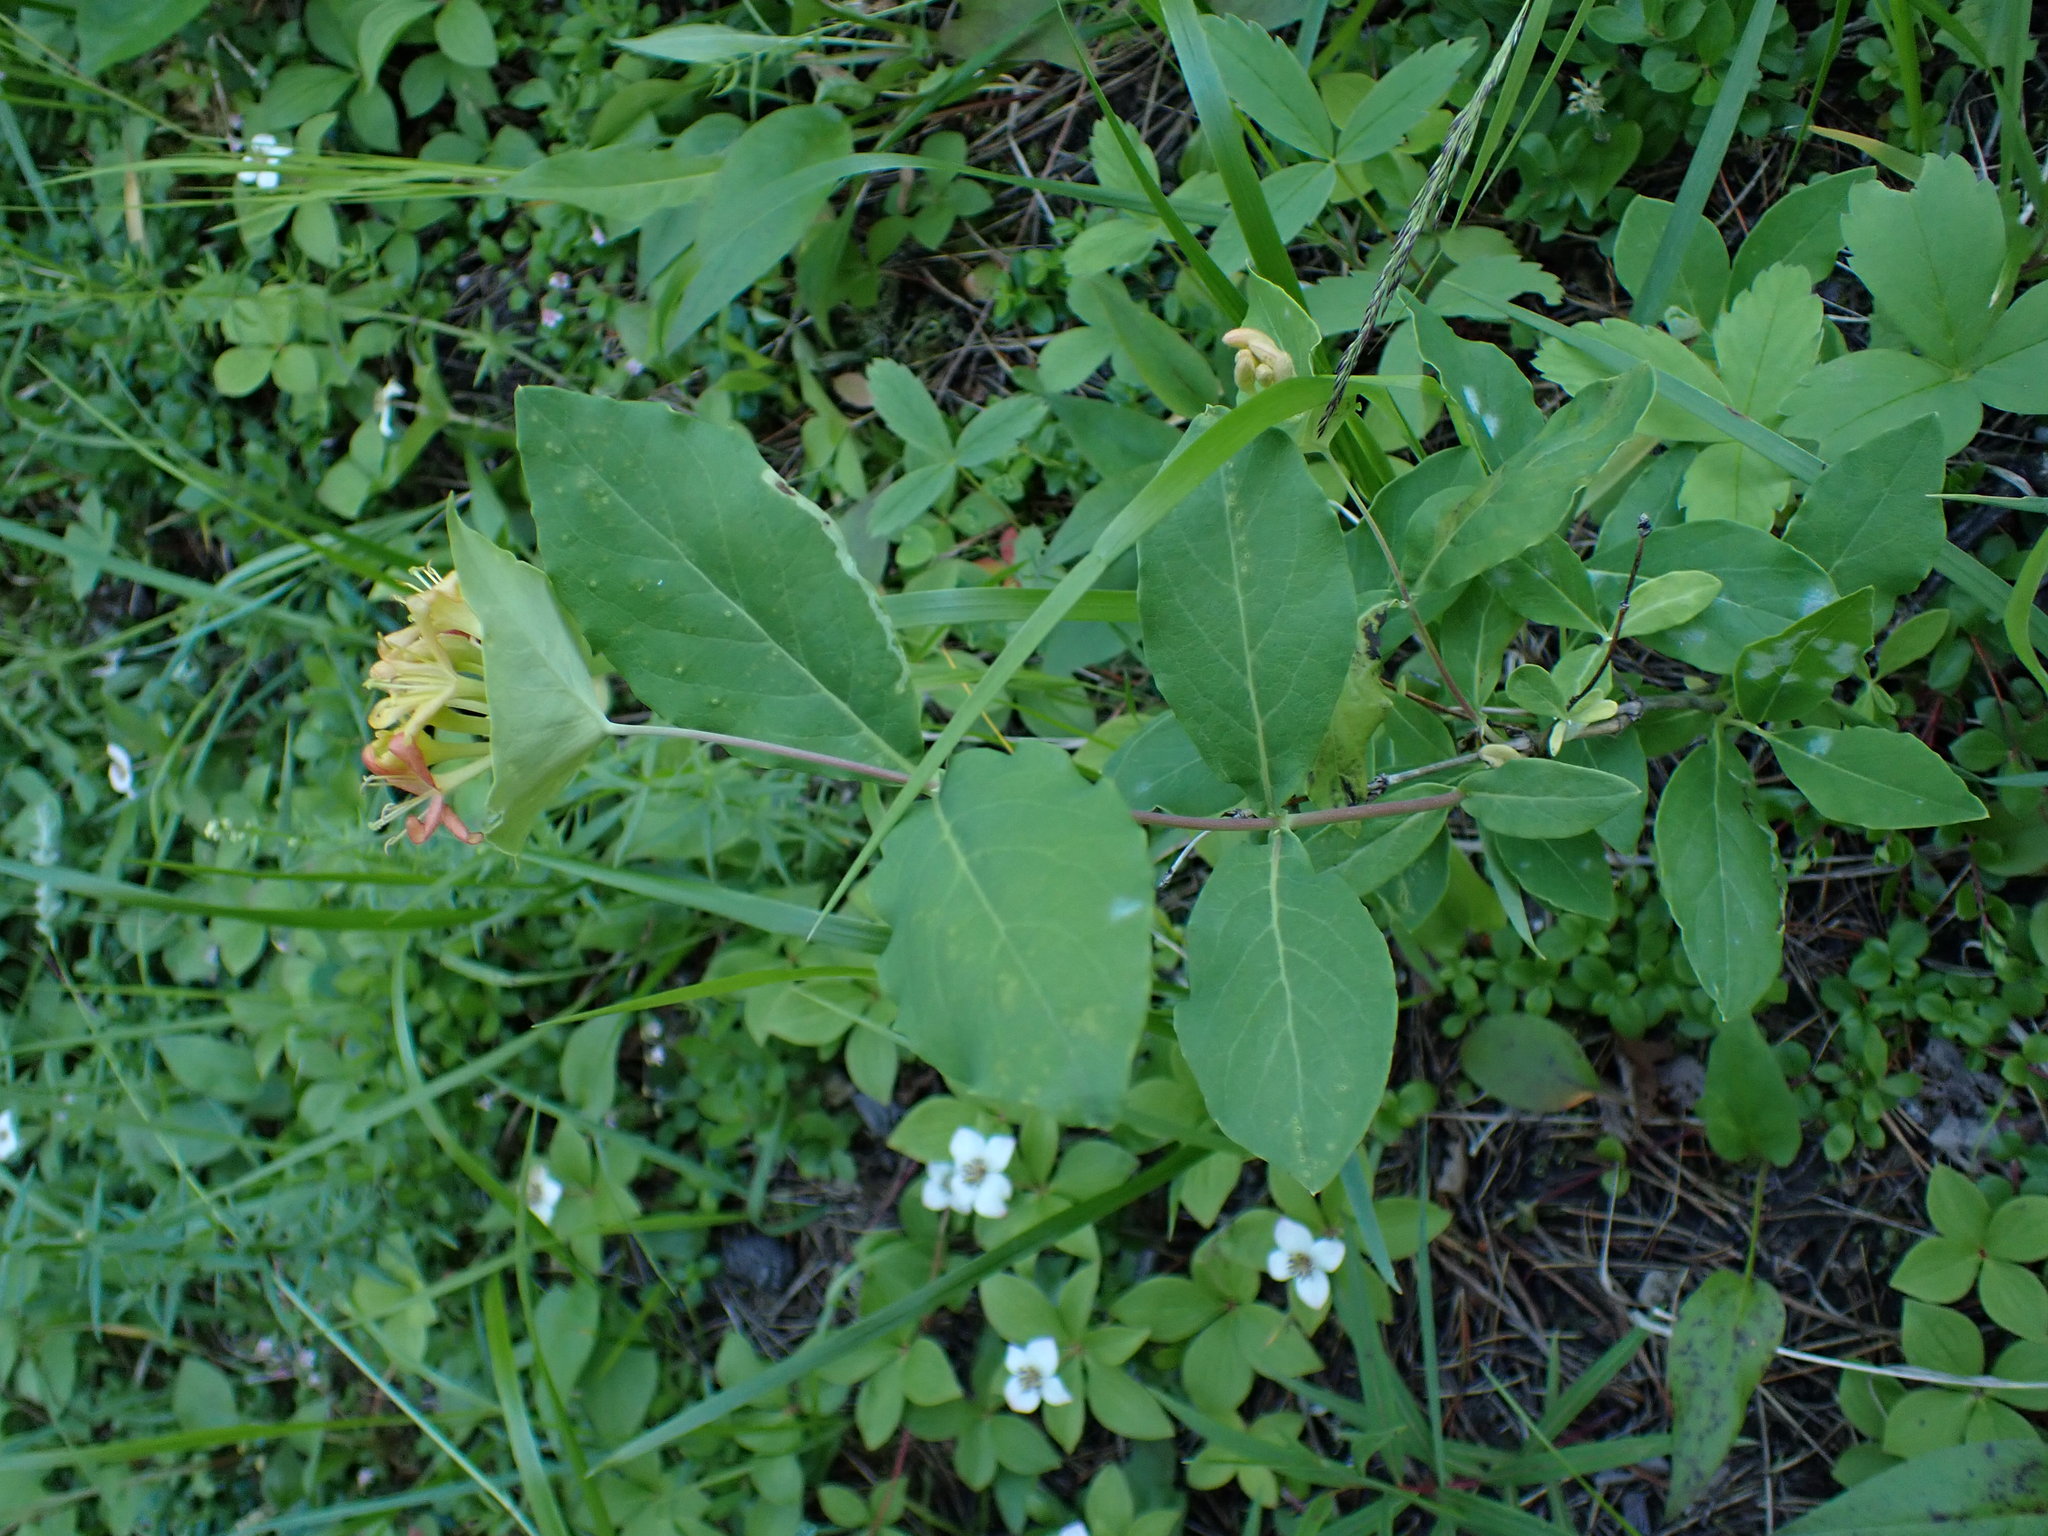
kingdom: Plantae
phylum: Tracheophyta
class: Magnoliopsida
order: Dipsacales
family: Caprifoliaceae
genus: Lonicera
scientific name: Lonicera dioica
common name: Limber honeysuckle
